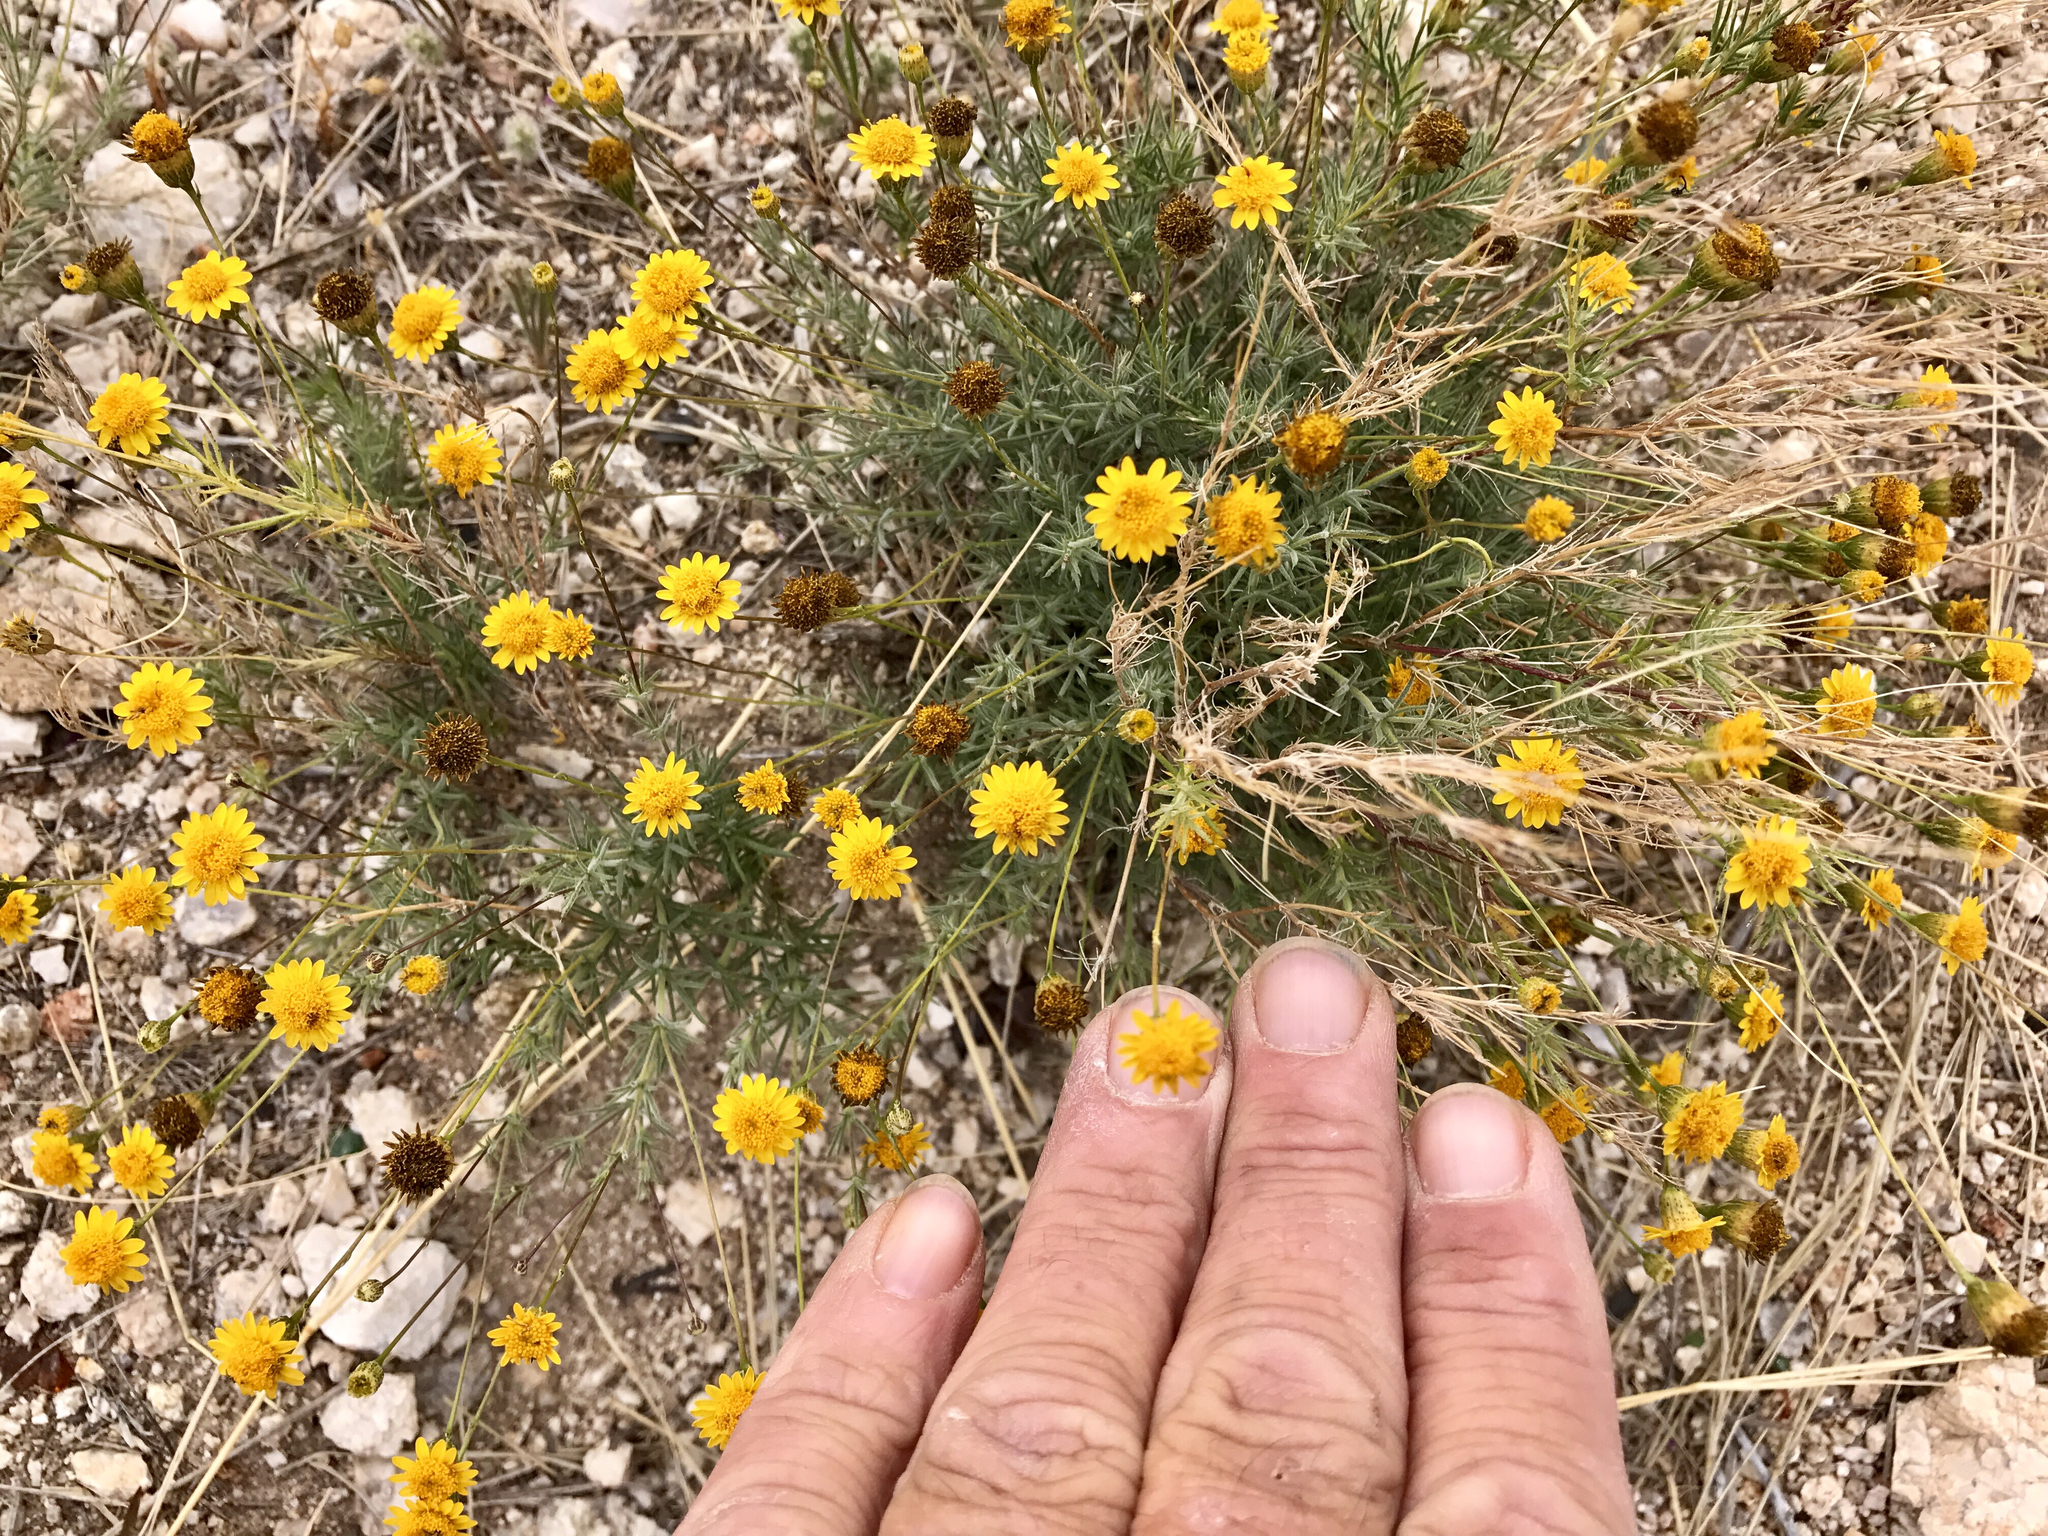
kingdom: Plantae
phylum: Tracheophyta
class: Magnoliopsida
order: Asterales
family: Asteraceae
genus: Thymophylla
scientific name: Thymophylla pentachaeta
